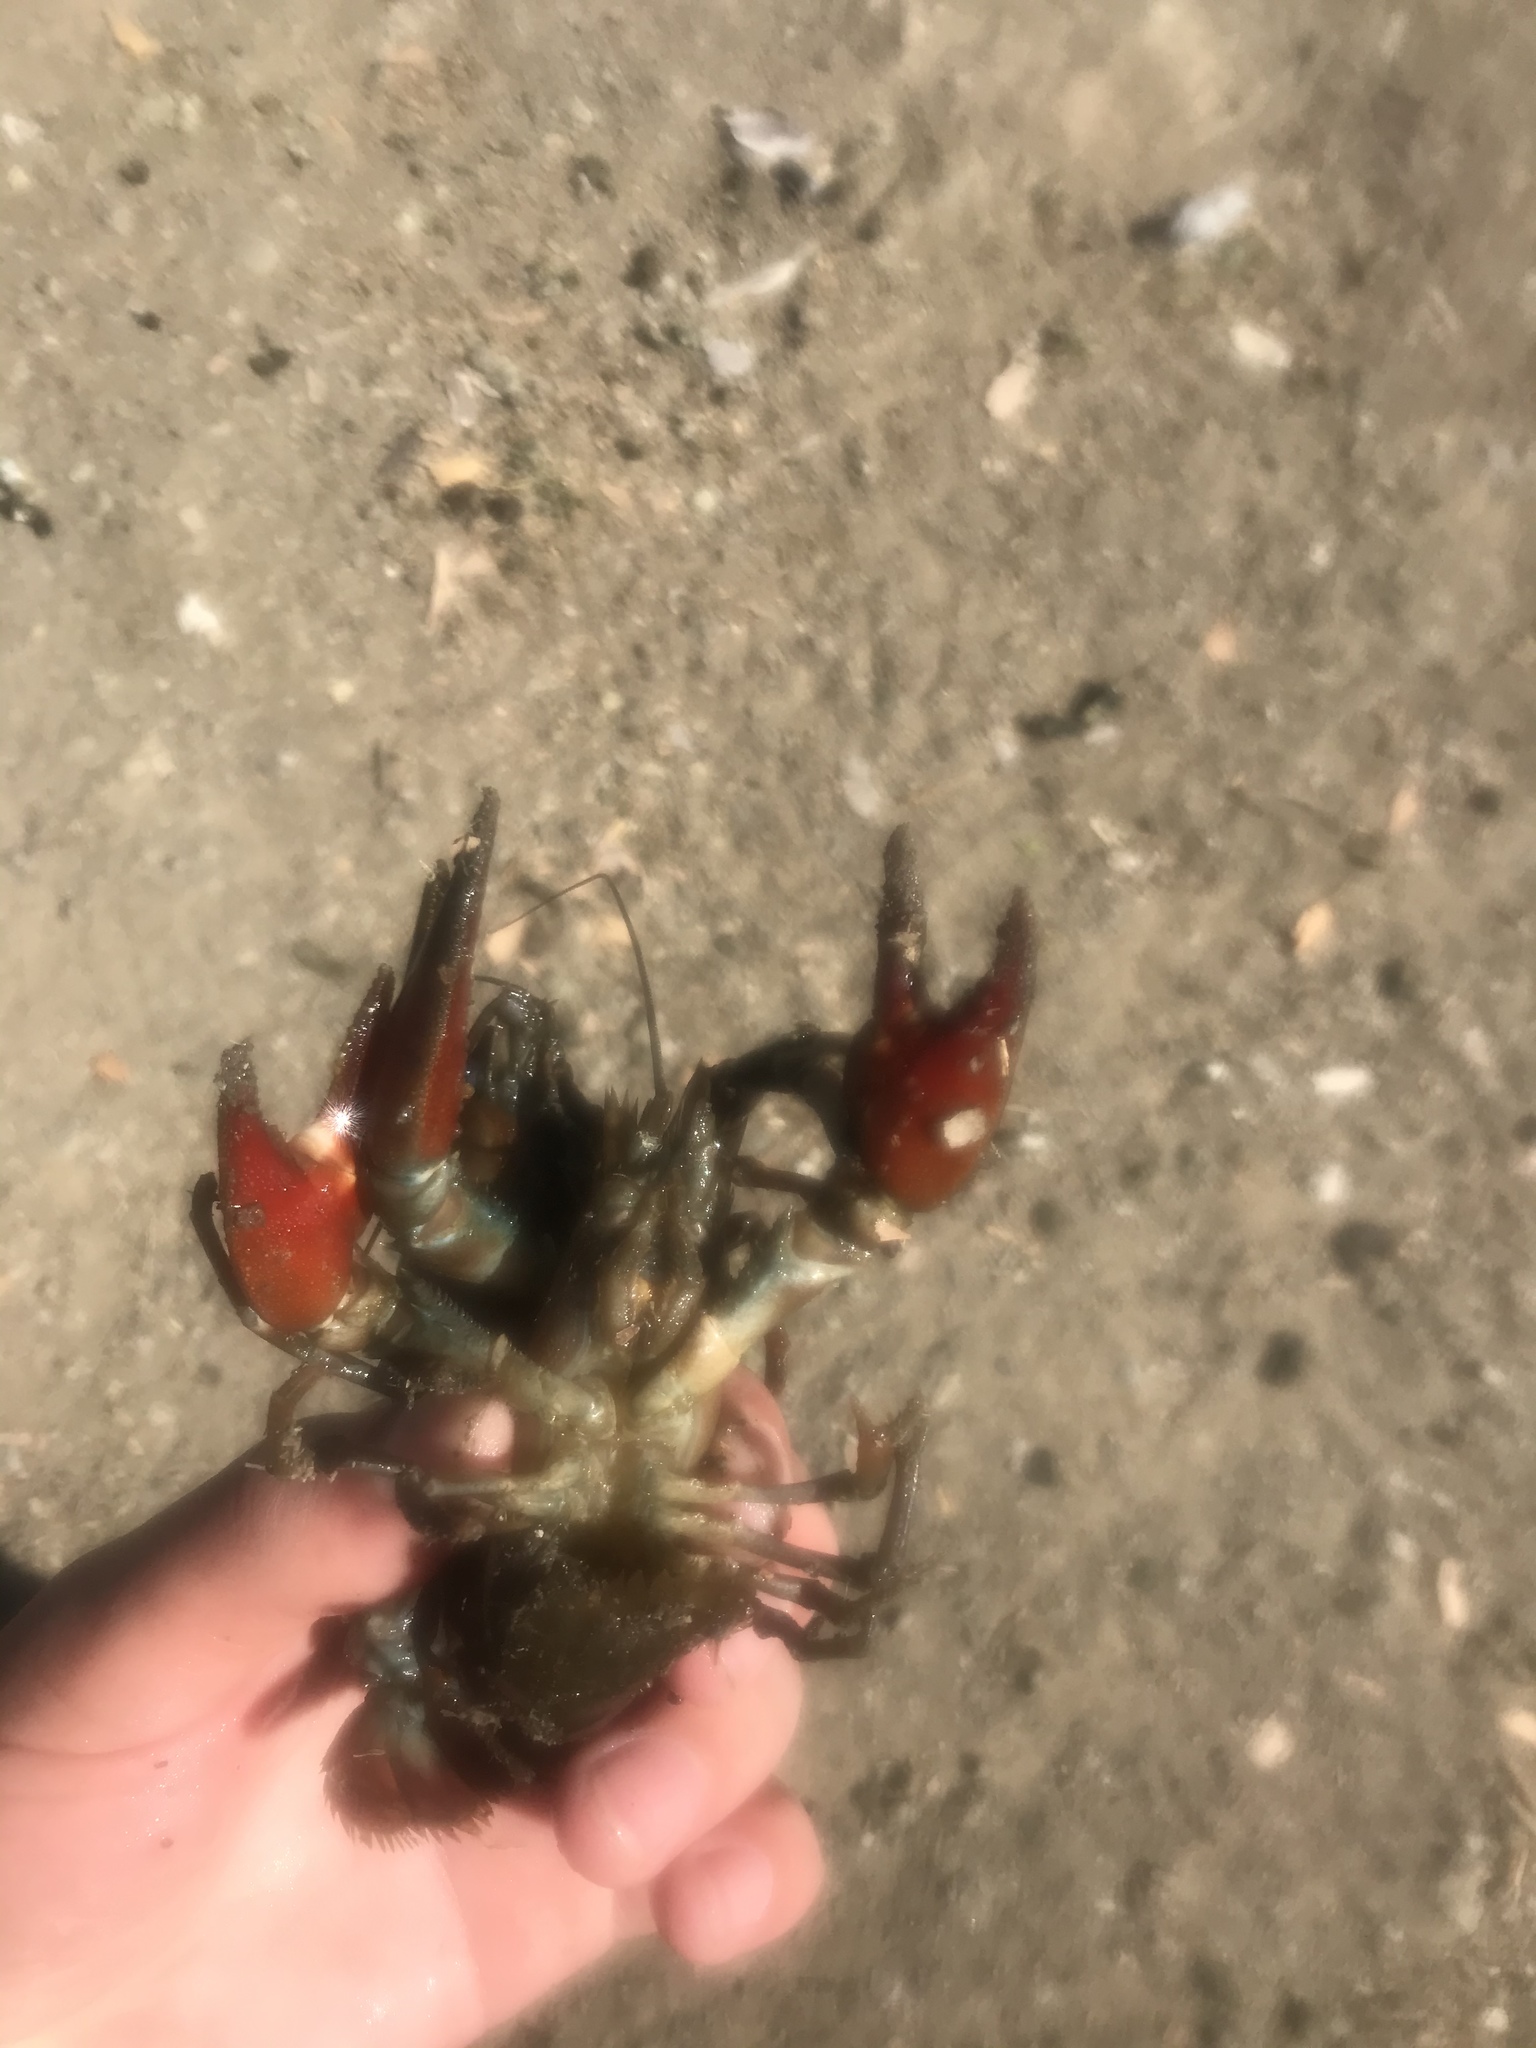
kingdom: Animalia
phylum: Arthropoda
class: Malacostraca
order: Decapoda
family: Astacidae
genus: Pacifastacus
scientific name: Pacifastacus leniusculus
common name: Signal crayfish
